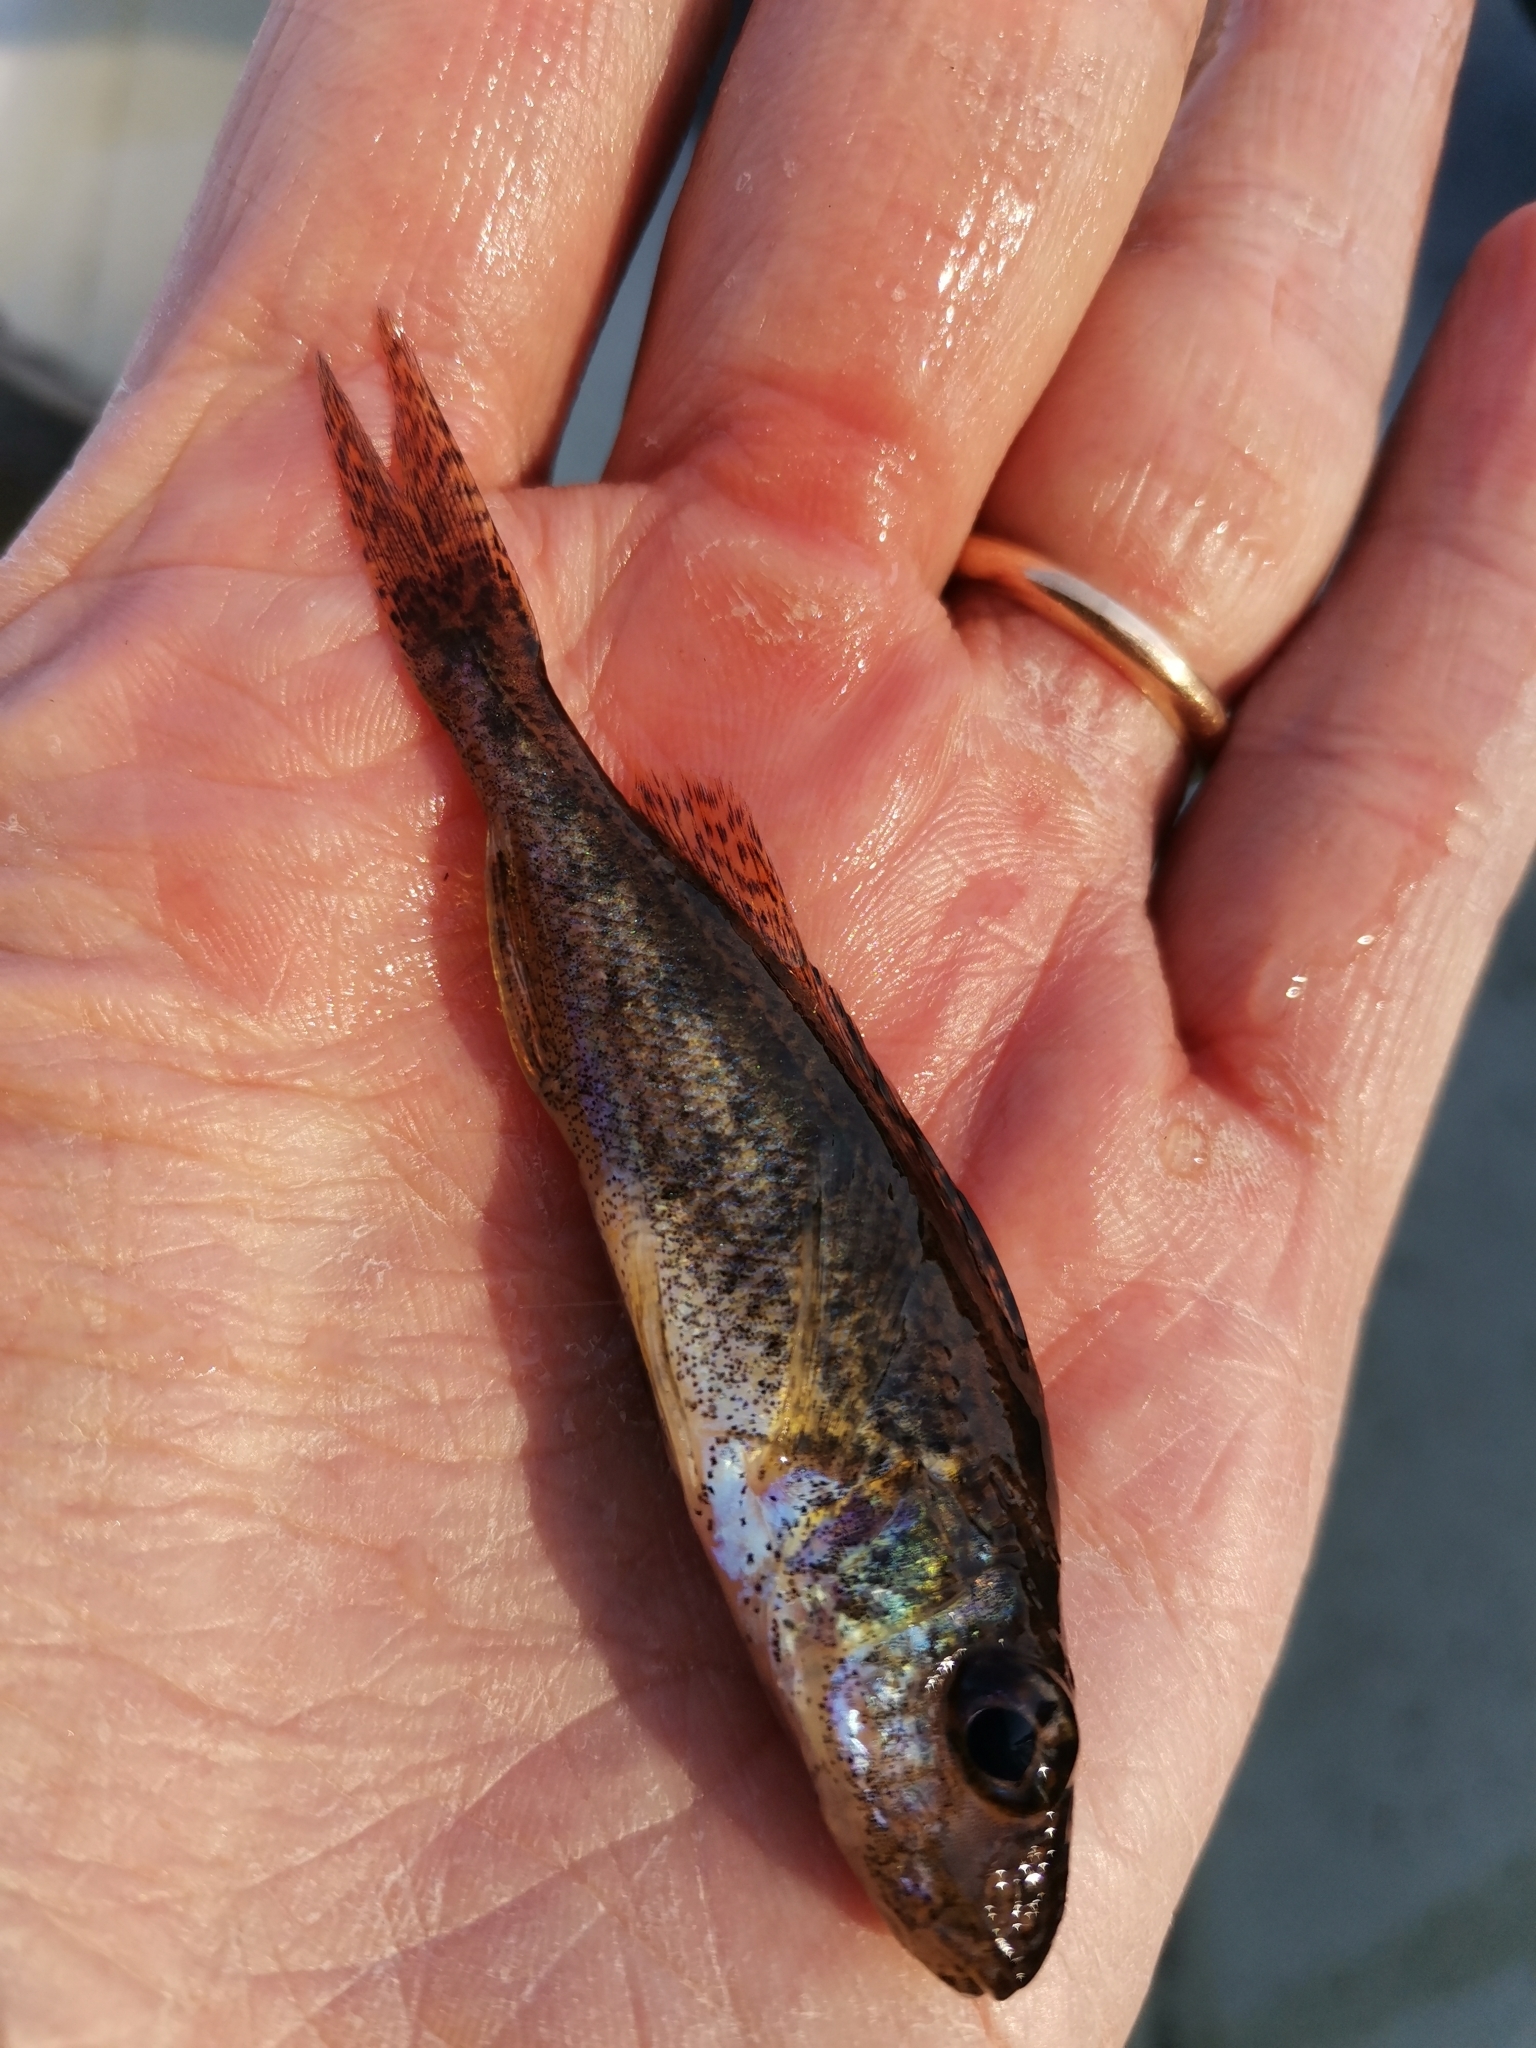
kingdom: Animalia
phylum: Chordata
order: Perciformes
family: Percidae
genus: Gymnocephalus
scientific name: Gymnocephalus cernua
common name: Ruffe
